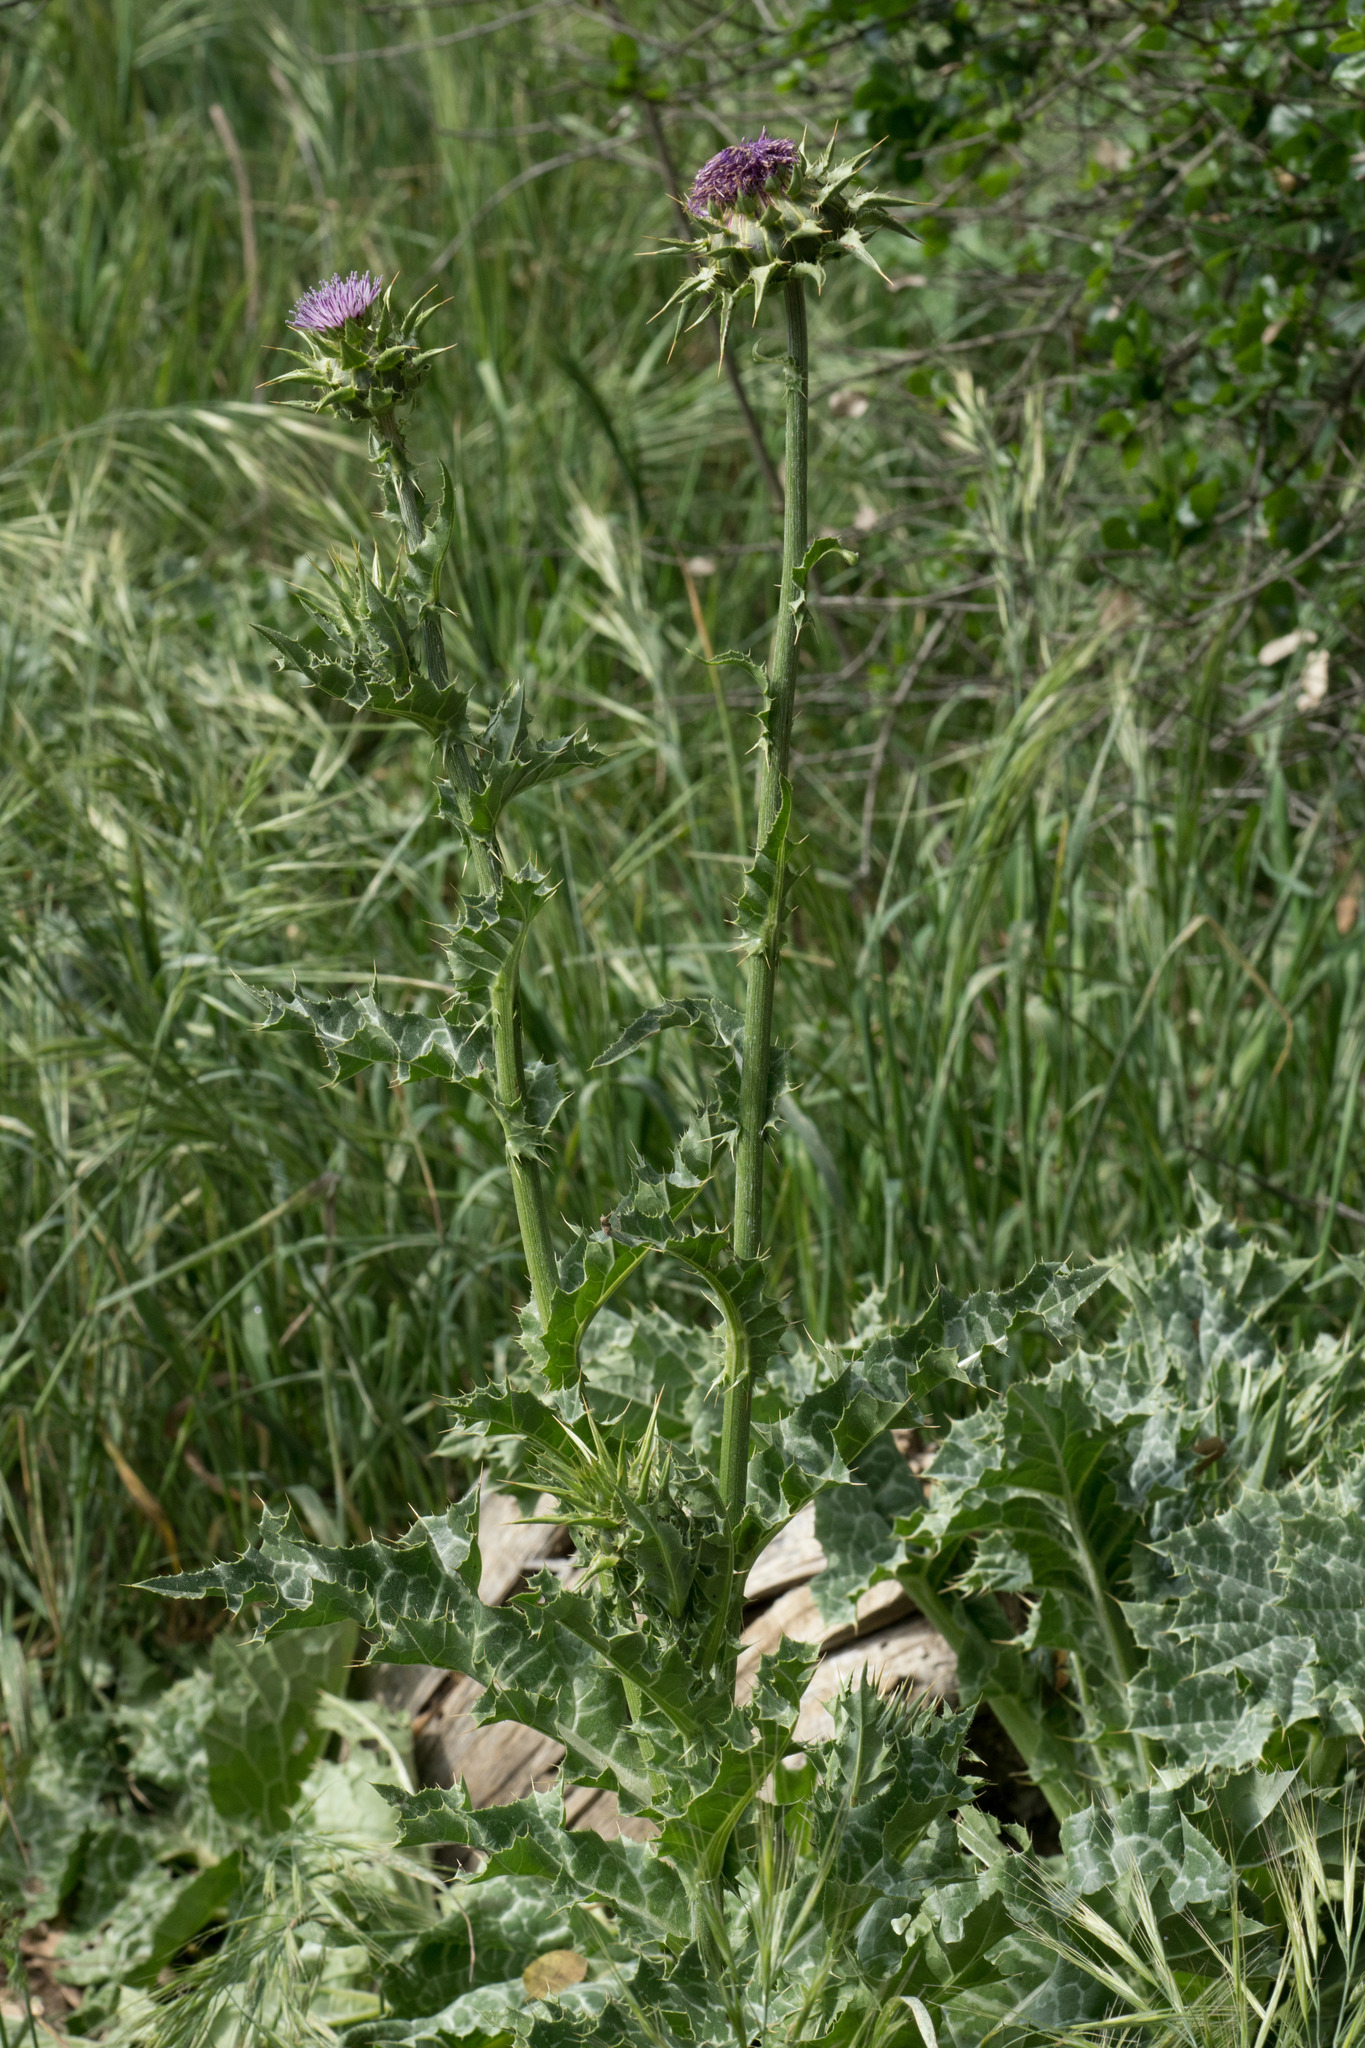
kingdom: Plantae
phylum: Tracheophyta
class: Magnoliopsida
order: Asterales
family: Asteraceae
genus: Silybum
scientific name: Silybum marianum
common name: Milk thistle
